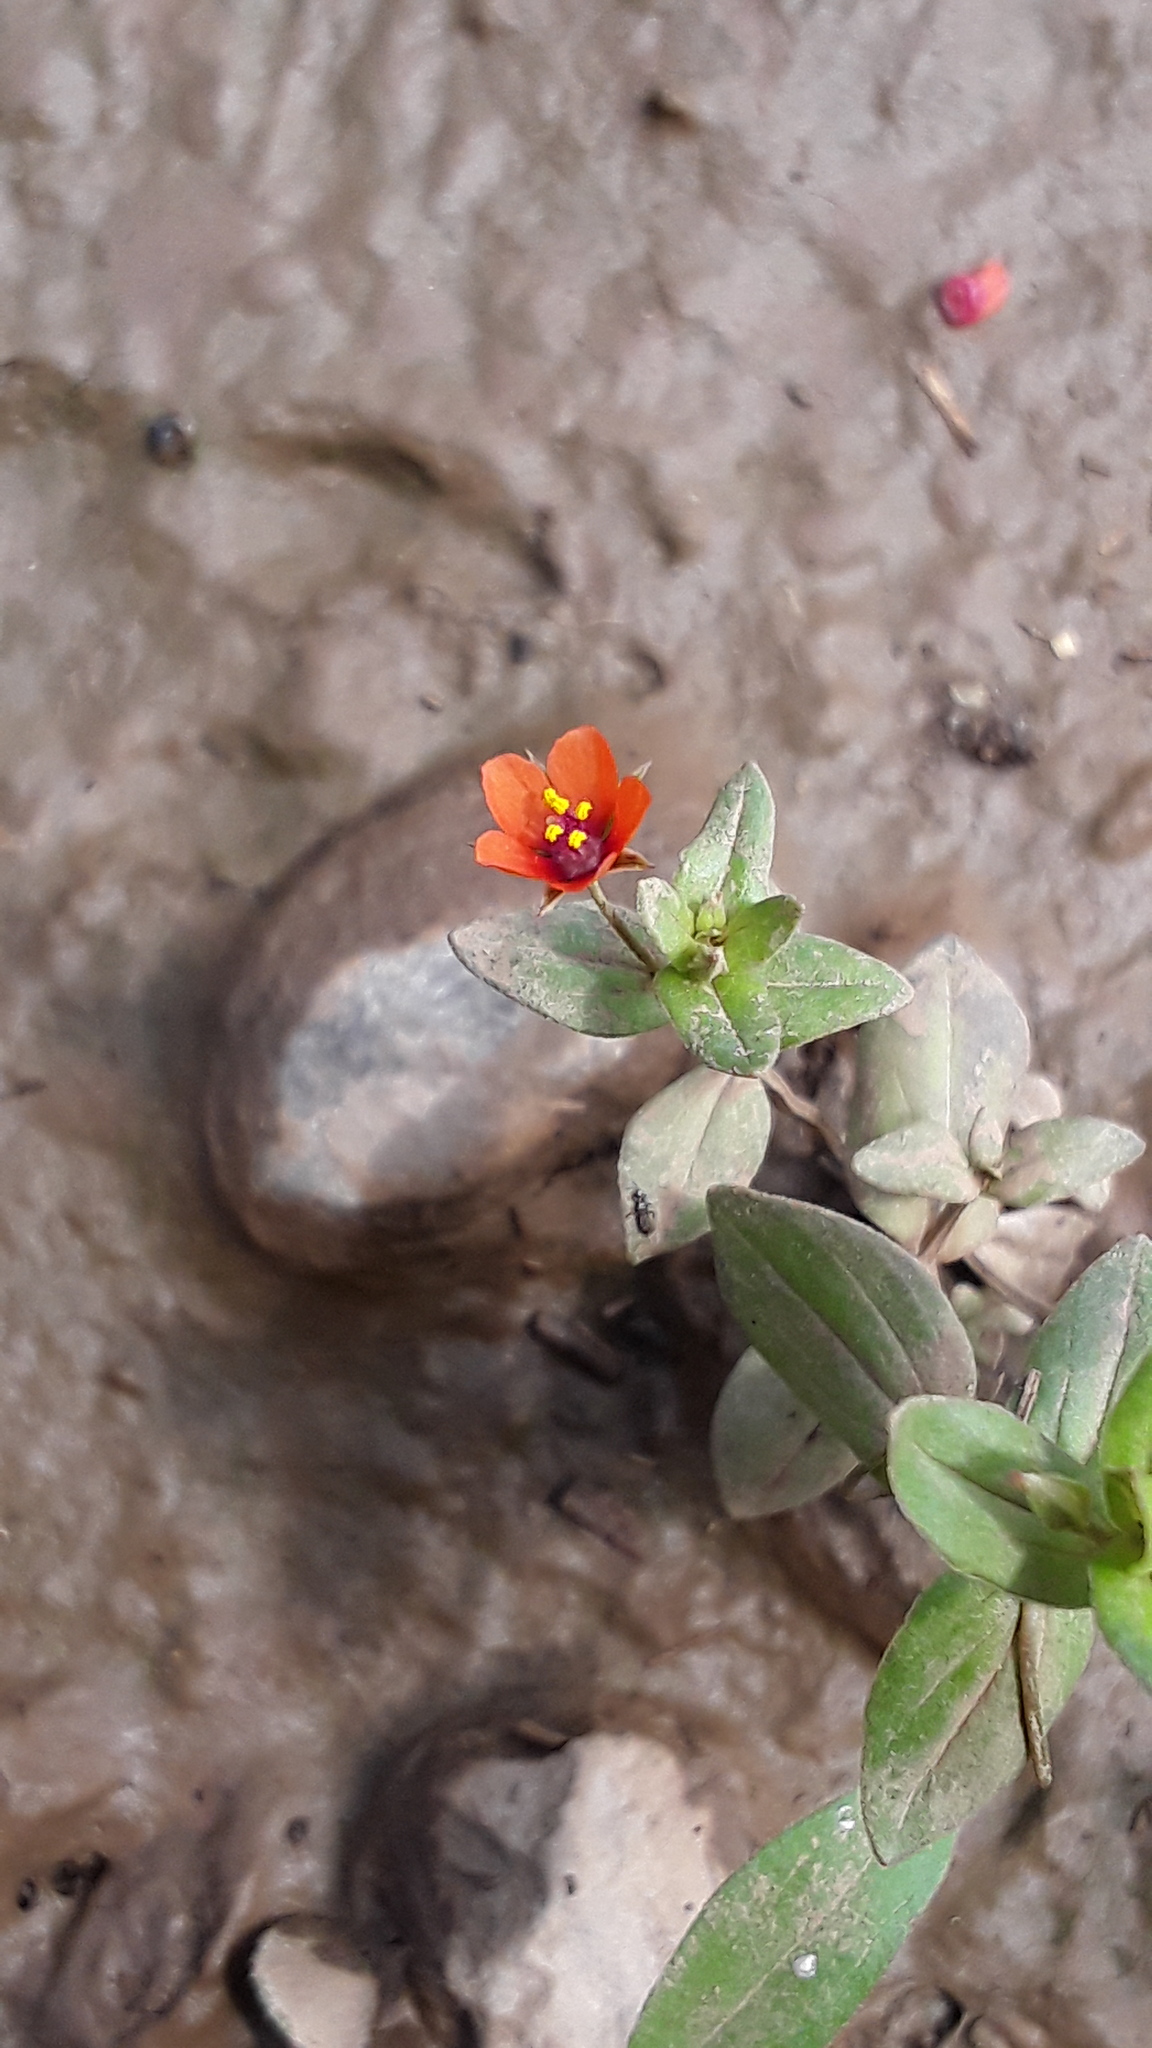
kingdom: Plantae
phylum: Tracheophyta
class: Magnoliopsida
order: Ericales
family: Primulaceae
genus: Lysimachia
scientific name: Lysimachia arvensis
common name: Scarlet pimpernel
